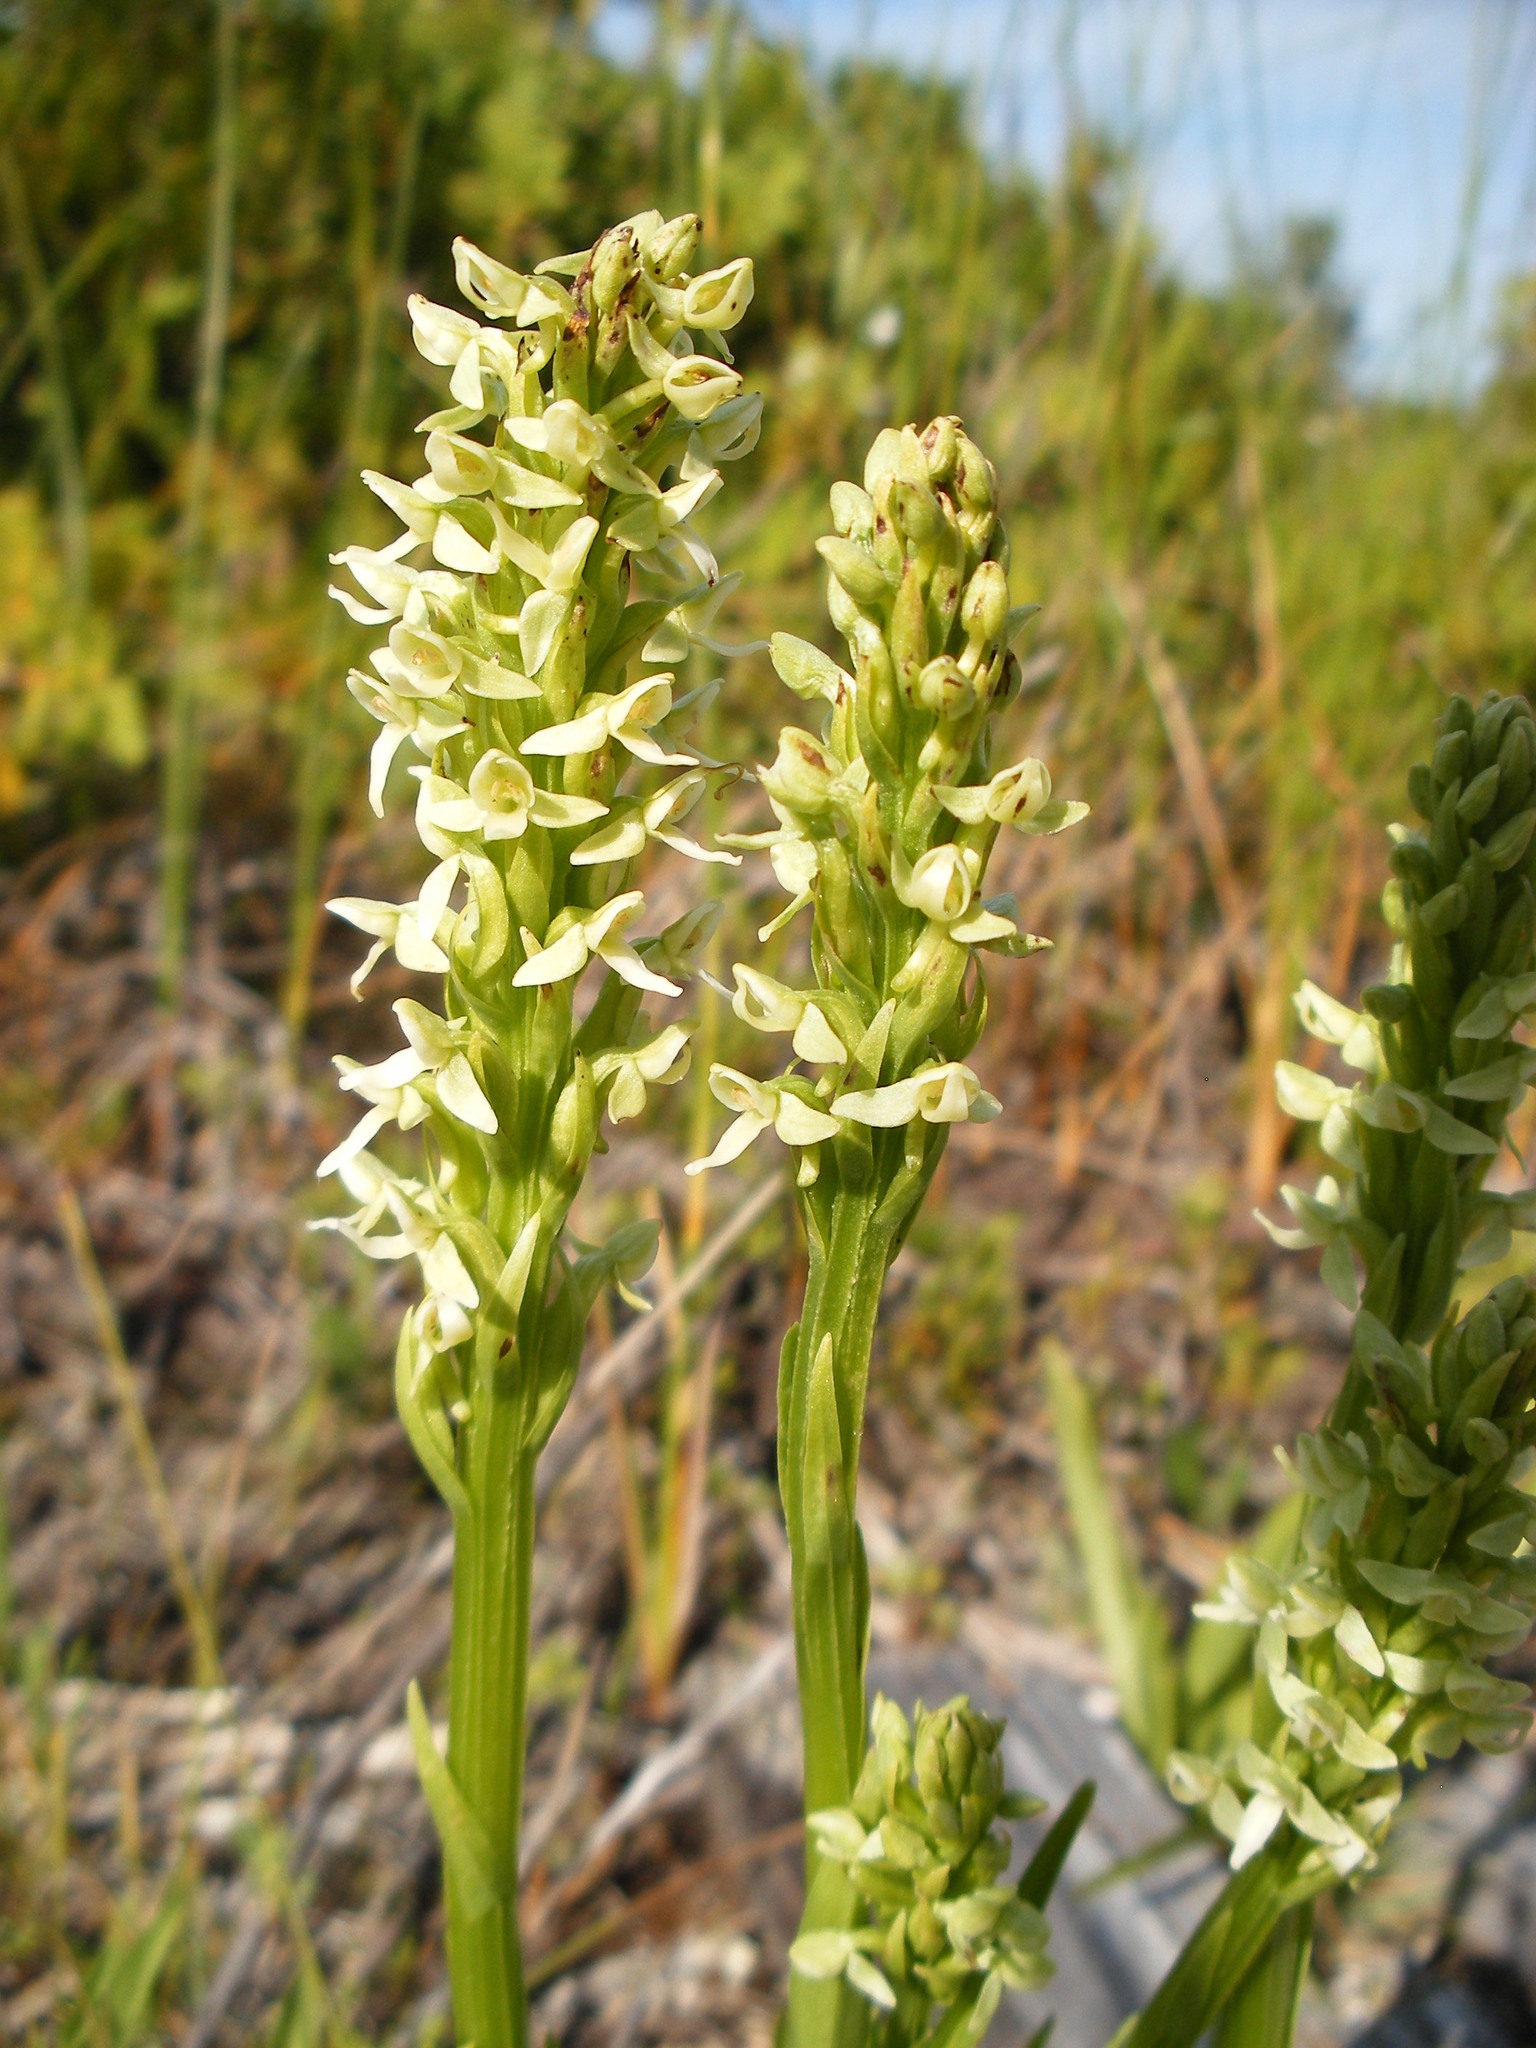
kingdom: Plantae
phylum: Tracheophyta
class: Liliopsida
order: Asparagales
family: Orchidaceae
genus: Platanthera
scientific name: Platanthera huronensis
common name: Fragrant green orchid
